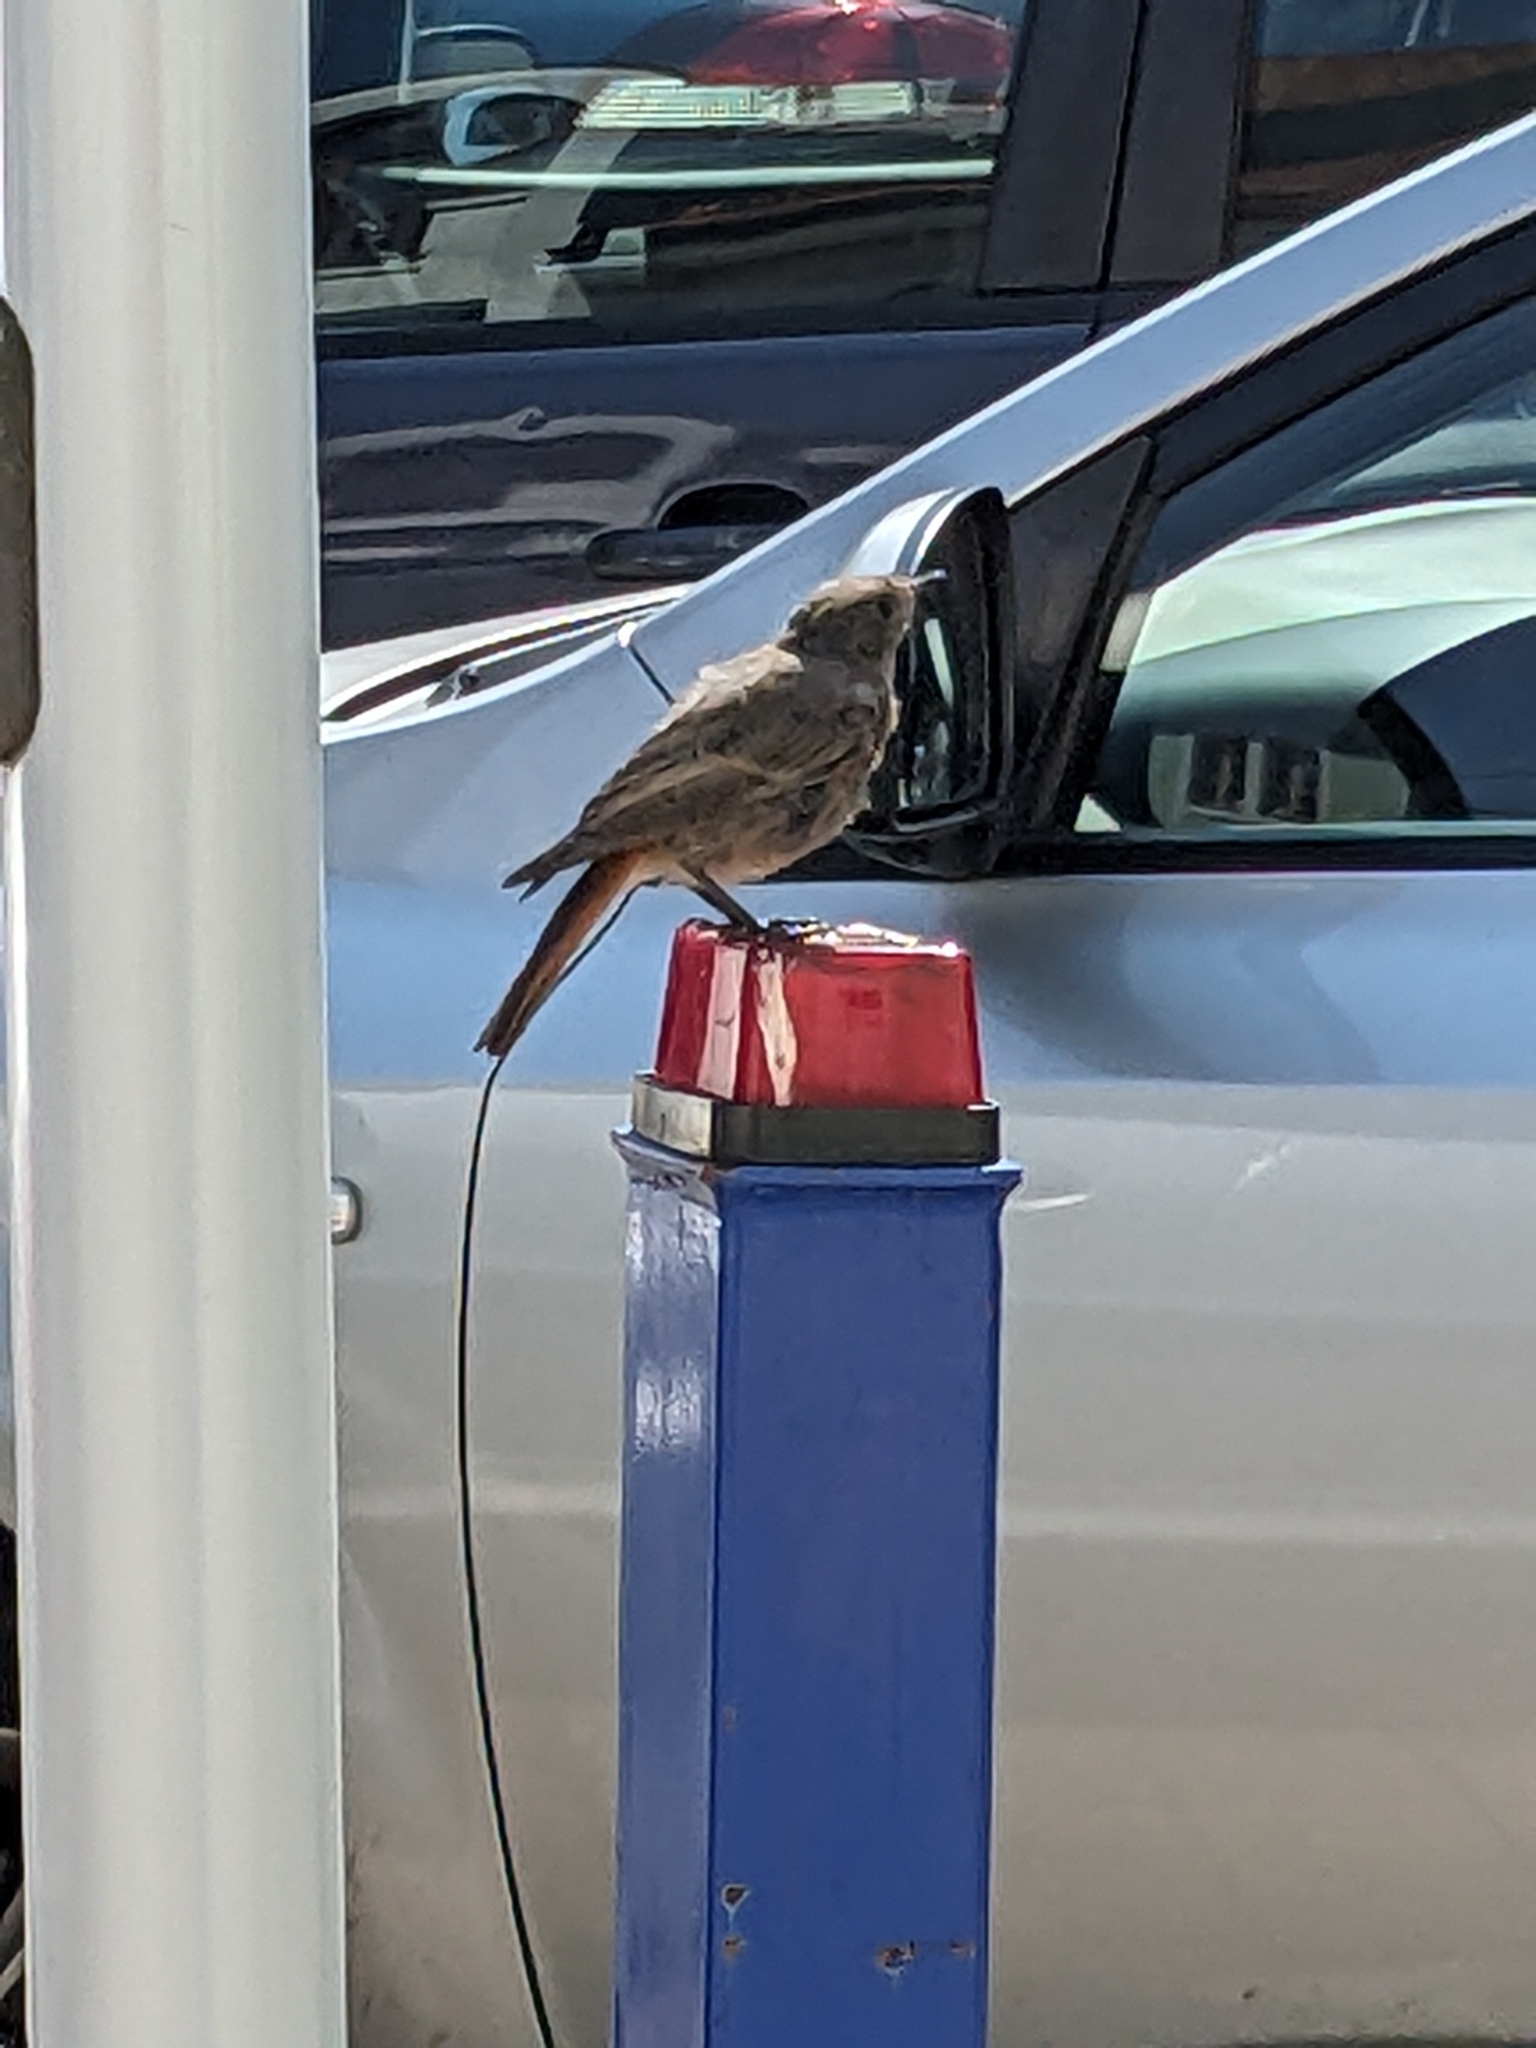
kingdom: Animalia
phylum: Chordata
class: Aves
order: Passeriformes
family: Muscicapidae
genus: Phoenicurus
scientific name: Phoenicurus ochruros
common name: Black redstart
